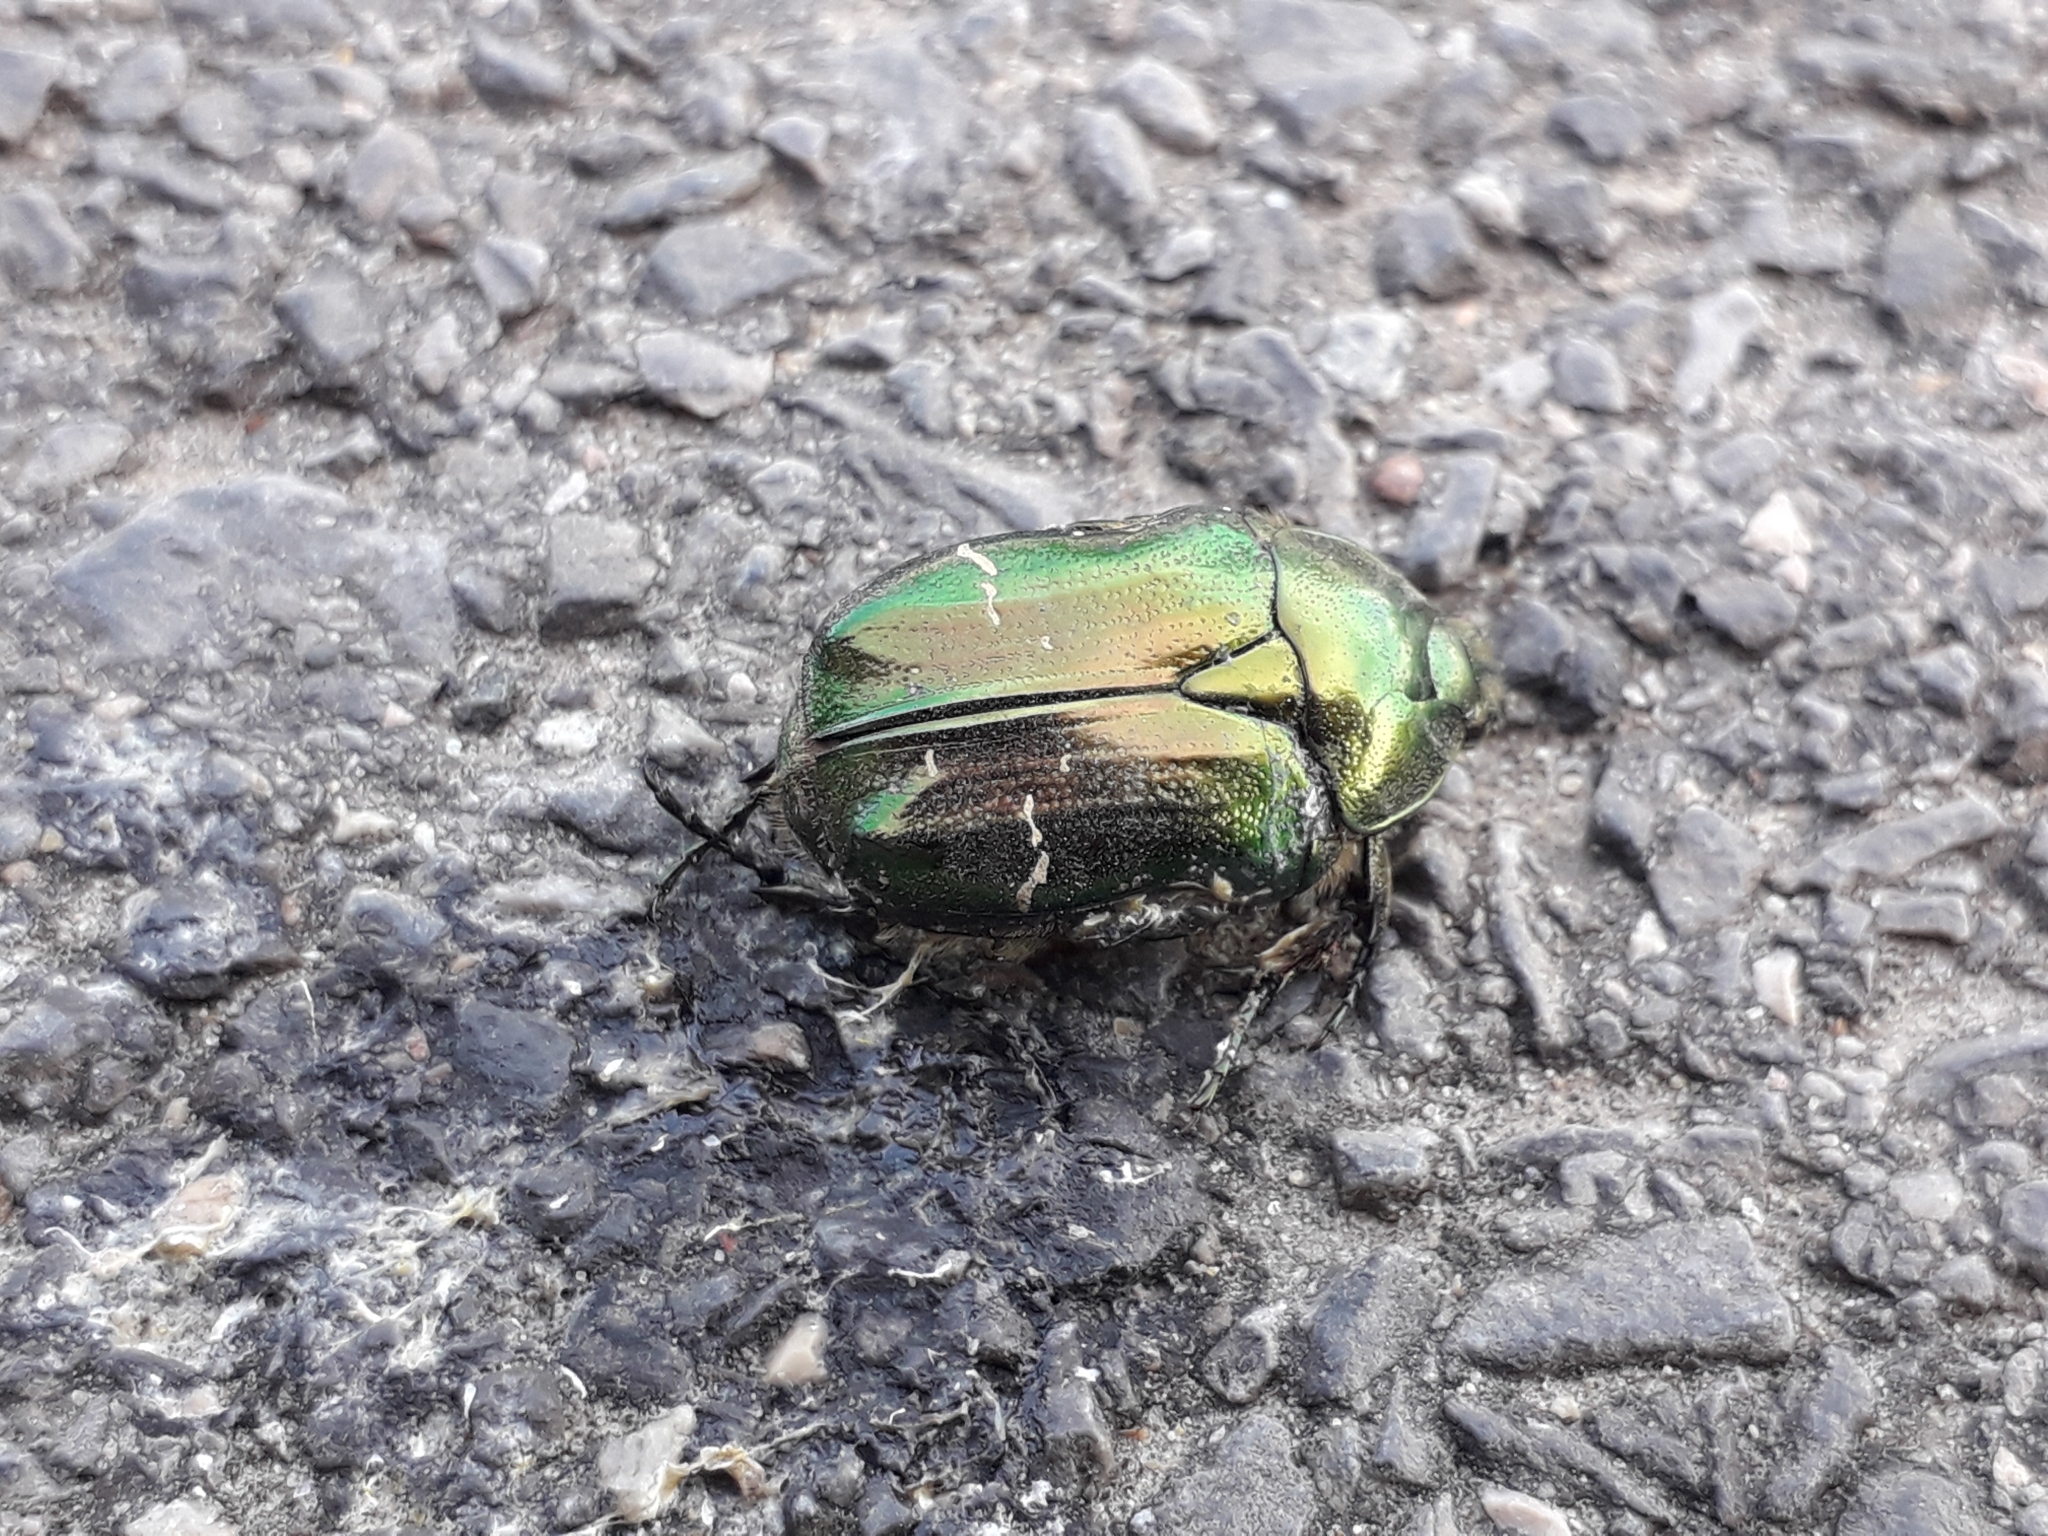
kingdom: Animalia
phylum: Arthropoda
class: Insecta
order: Coleoptera
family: Scarabaeidae
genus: Cetonia
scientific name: Cetonia aurata
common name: Rose chafer
